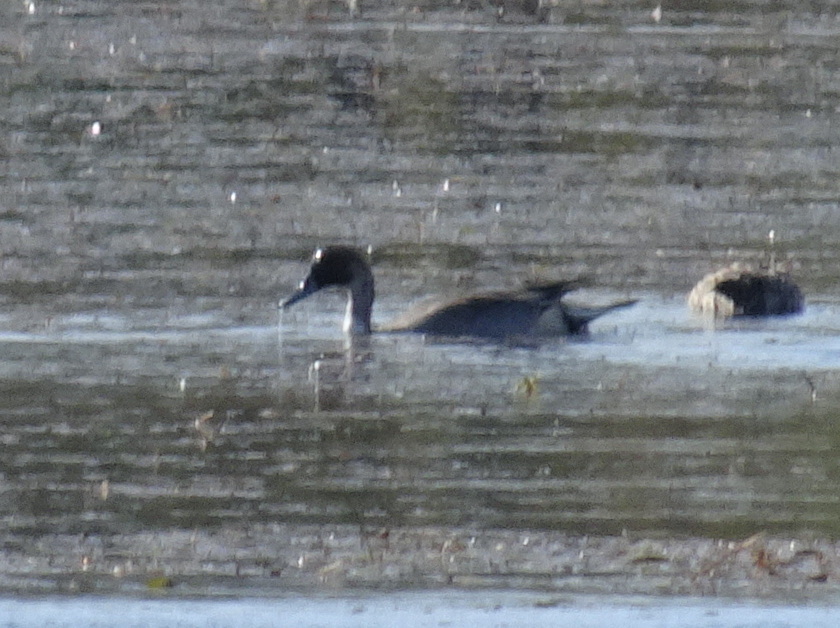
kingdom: Animalia
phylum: Chordata
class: Aves
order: Anseriformes
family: Anatidae
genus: Anas
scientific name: Anas acuta
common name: Northern pintail
